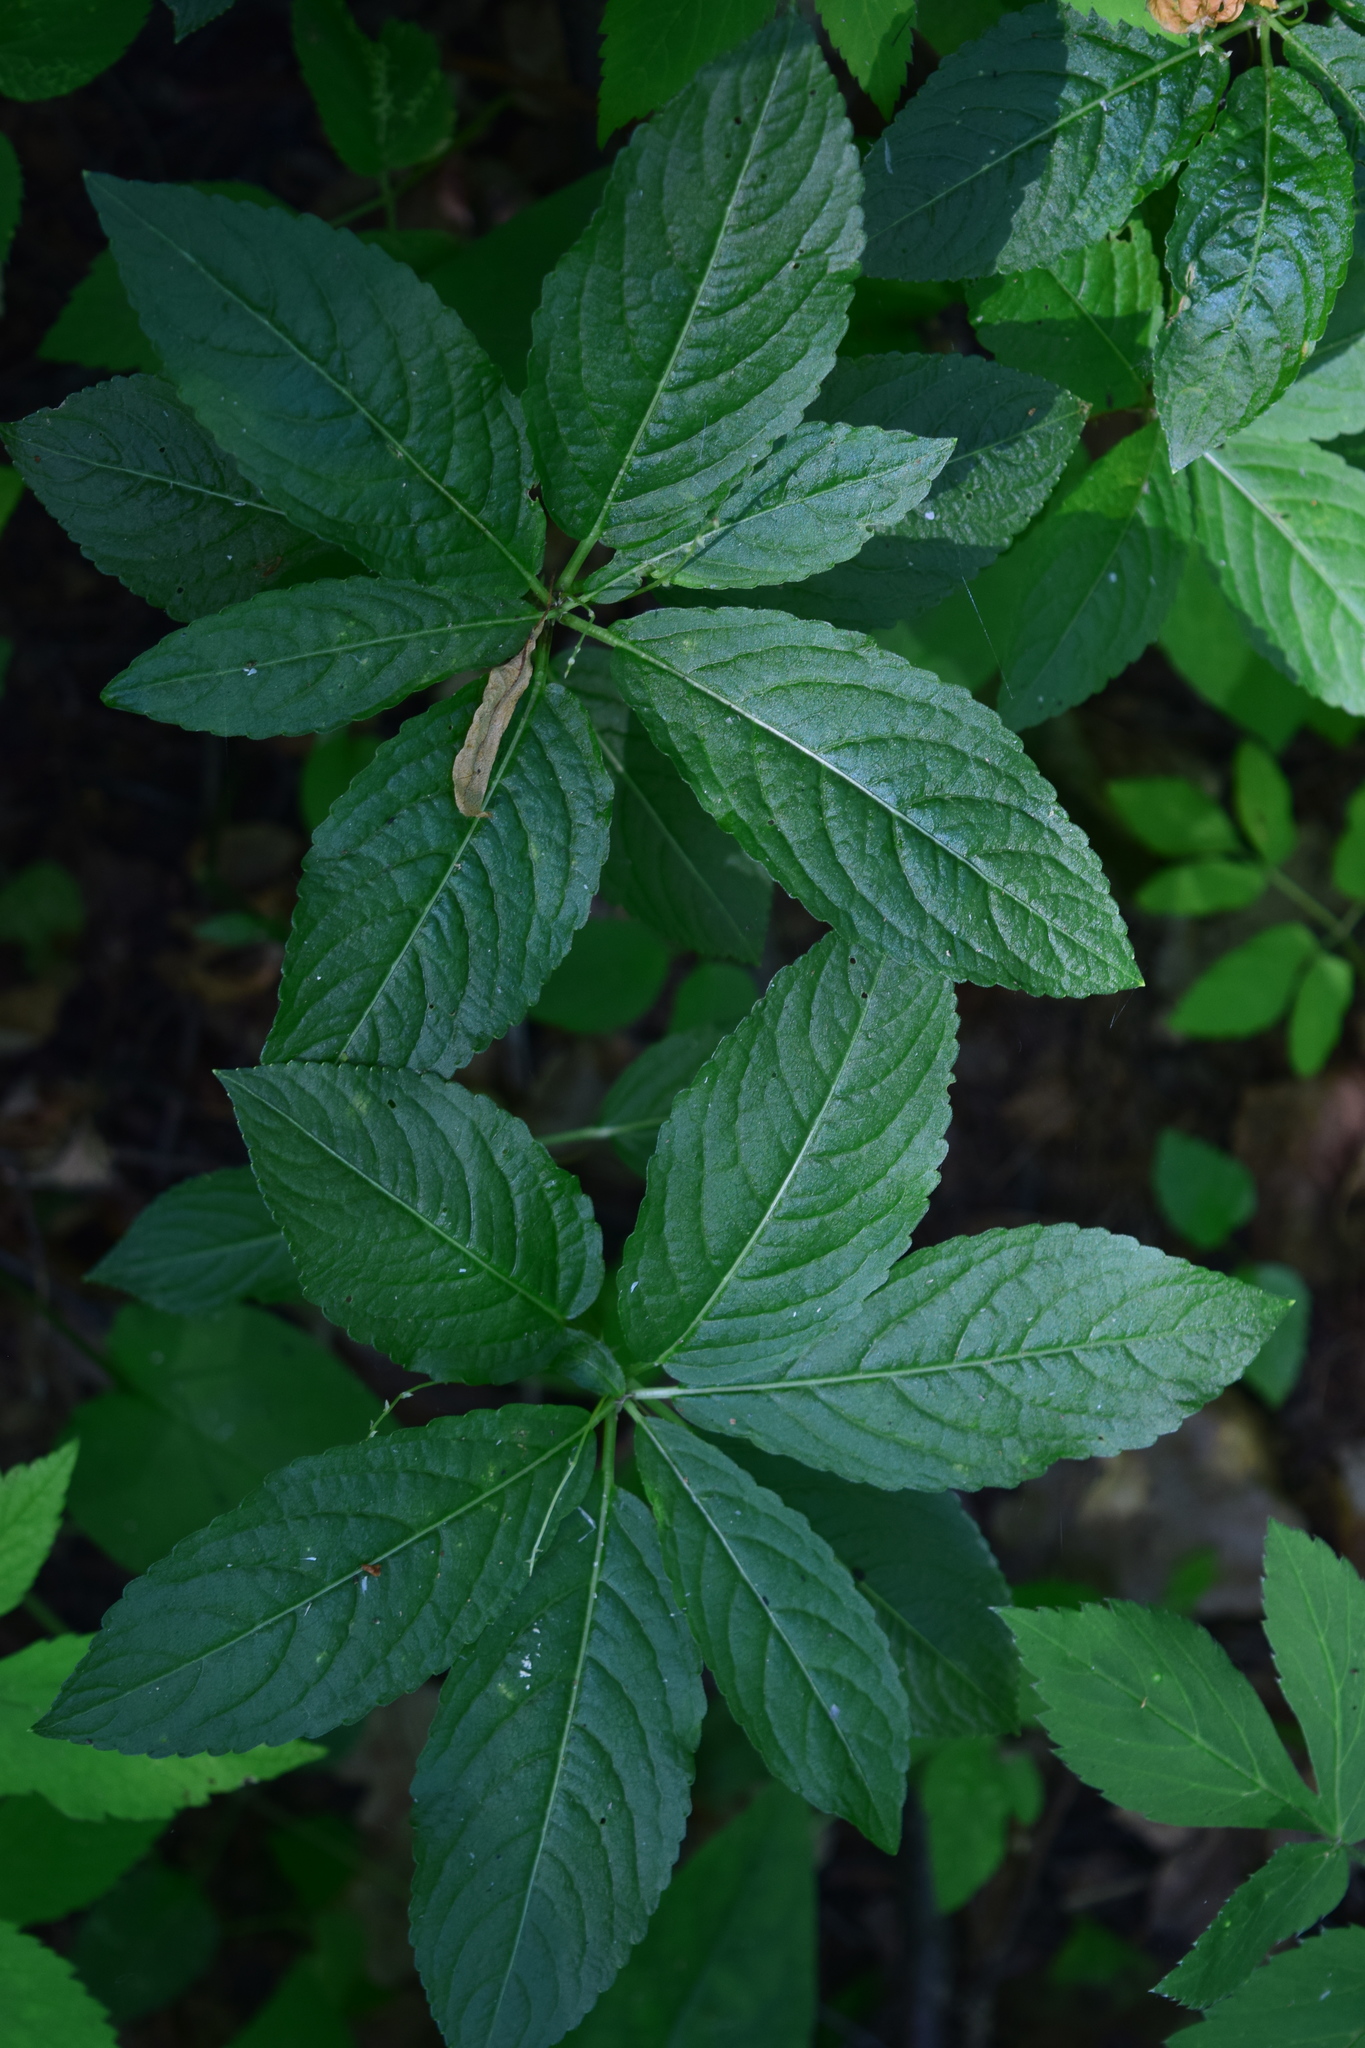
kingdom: Plantae
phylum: Tracheophyta
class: Magnoliopsida
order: Malpighiales
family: Euphorbiaceae
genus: Mercurialis
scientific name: Mercurialis perennis
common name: Dog mercury
